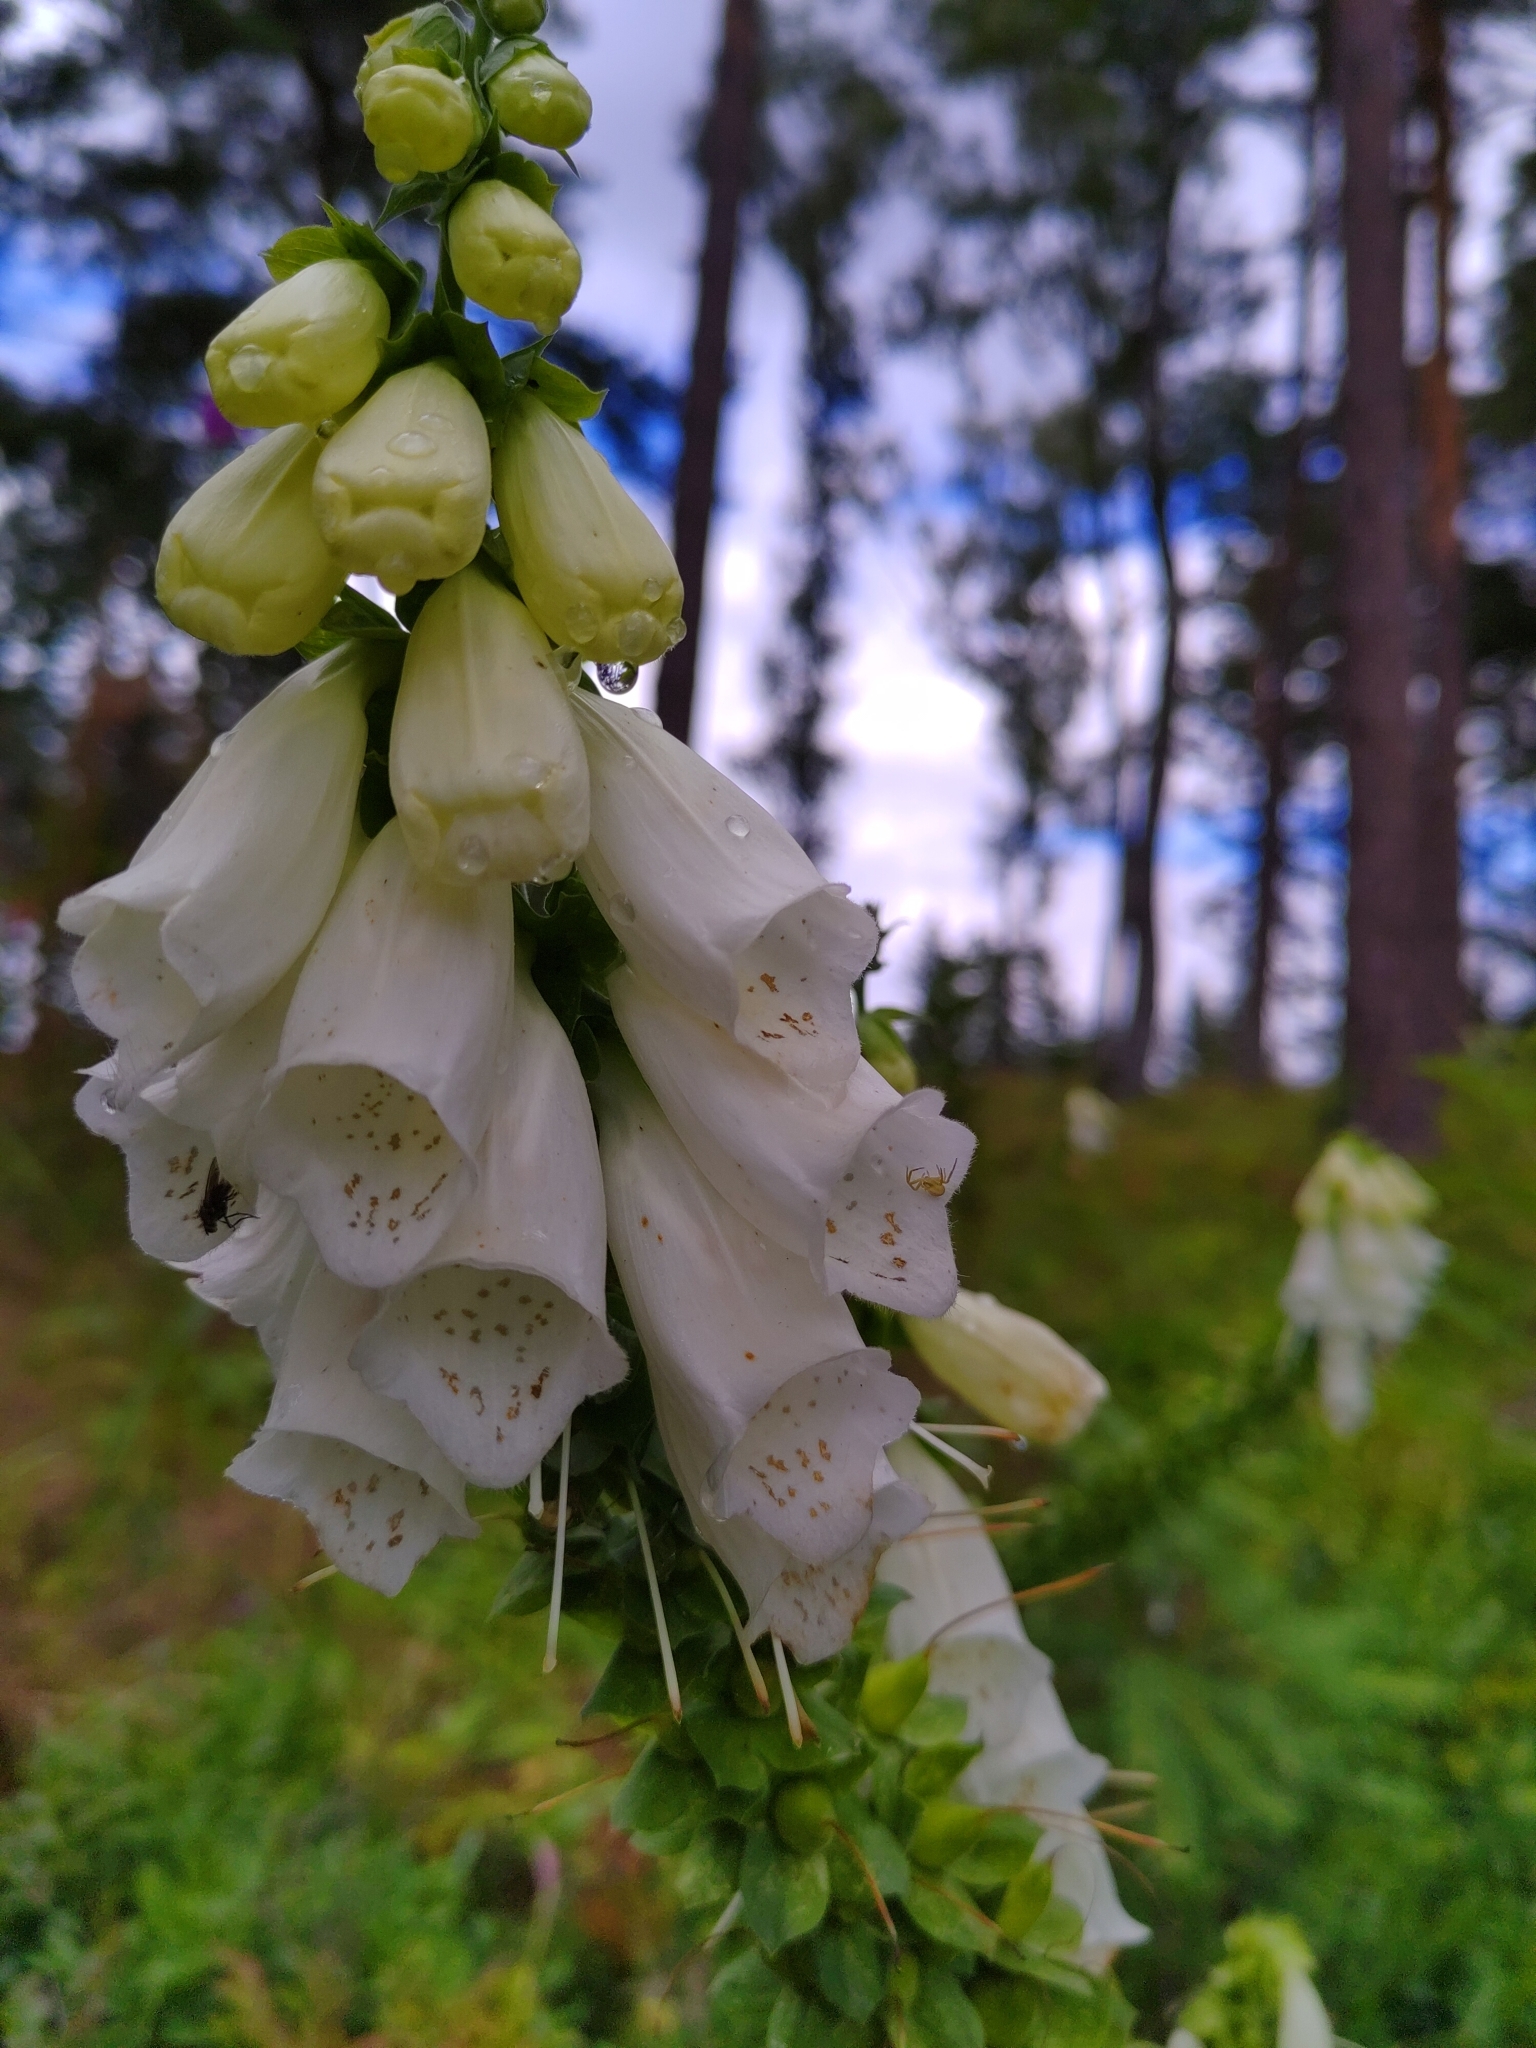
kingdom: Plantae
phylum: Tracheophyta
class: Magnoliopsida
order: Lamiales
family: Plantaginaceae
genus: Digitalis
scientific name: Digitalis purpurea
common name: Foxglove
